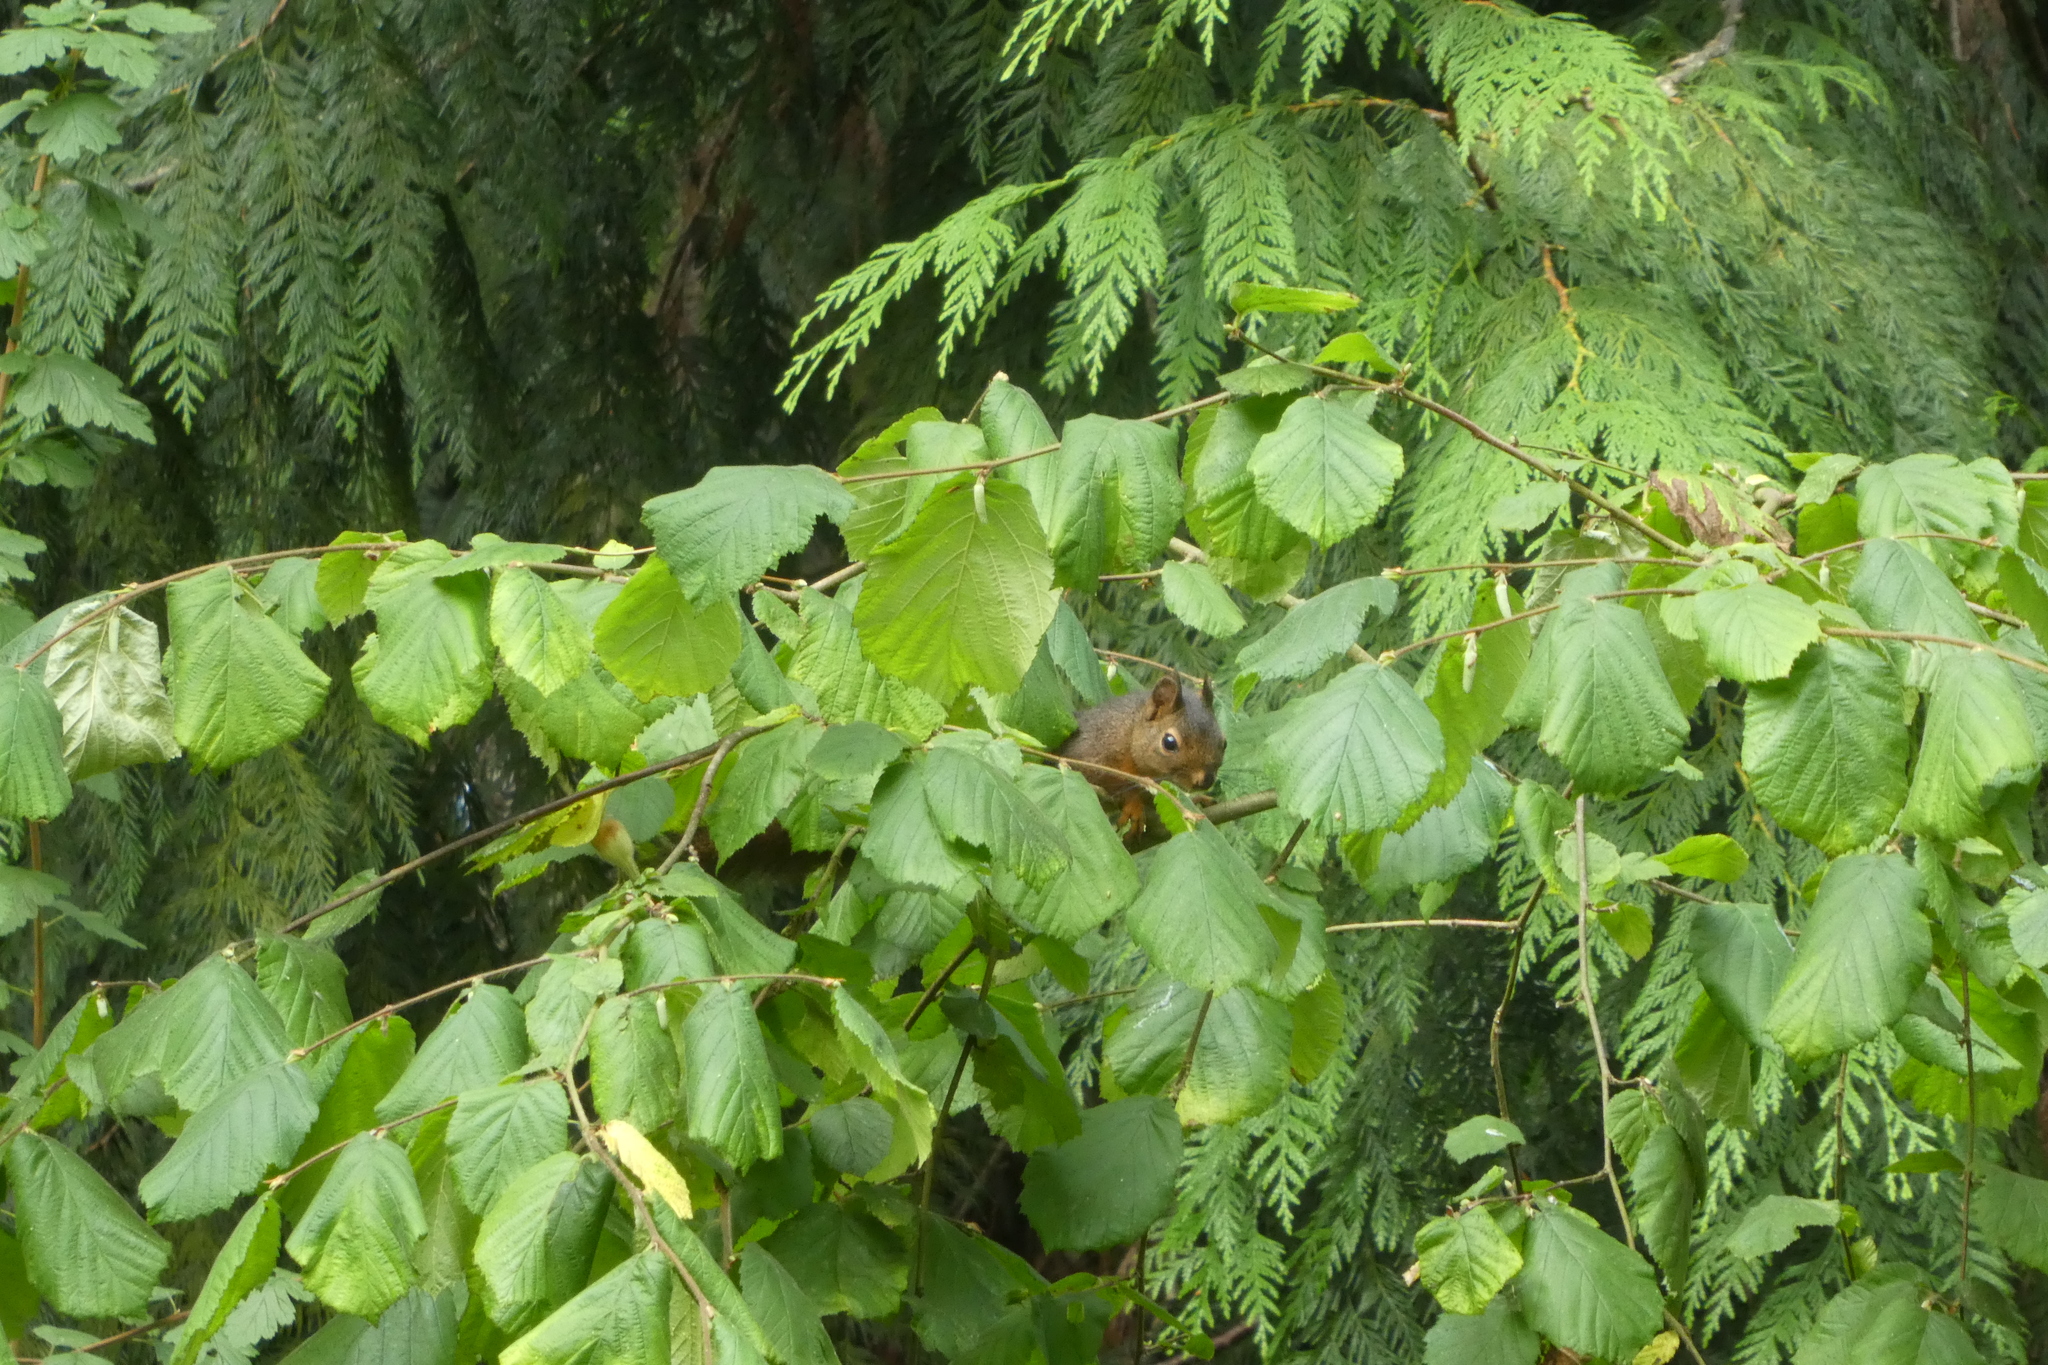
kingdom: Animalia
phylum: Chordata
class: Mammalia
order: Rodentia
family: Sciuridae
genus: Tamiasciurus
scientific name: Tamiasciurus douglasii
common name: Douglas's squirrel
